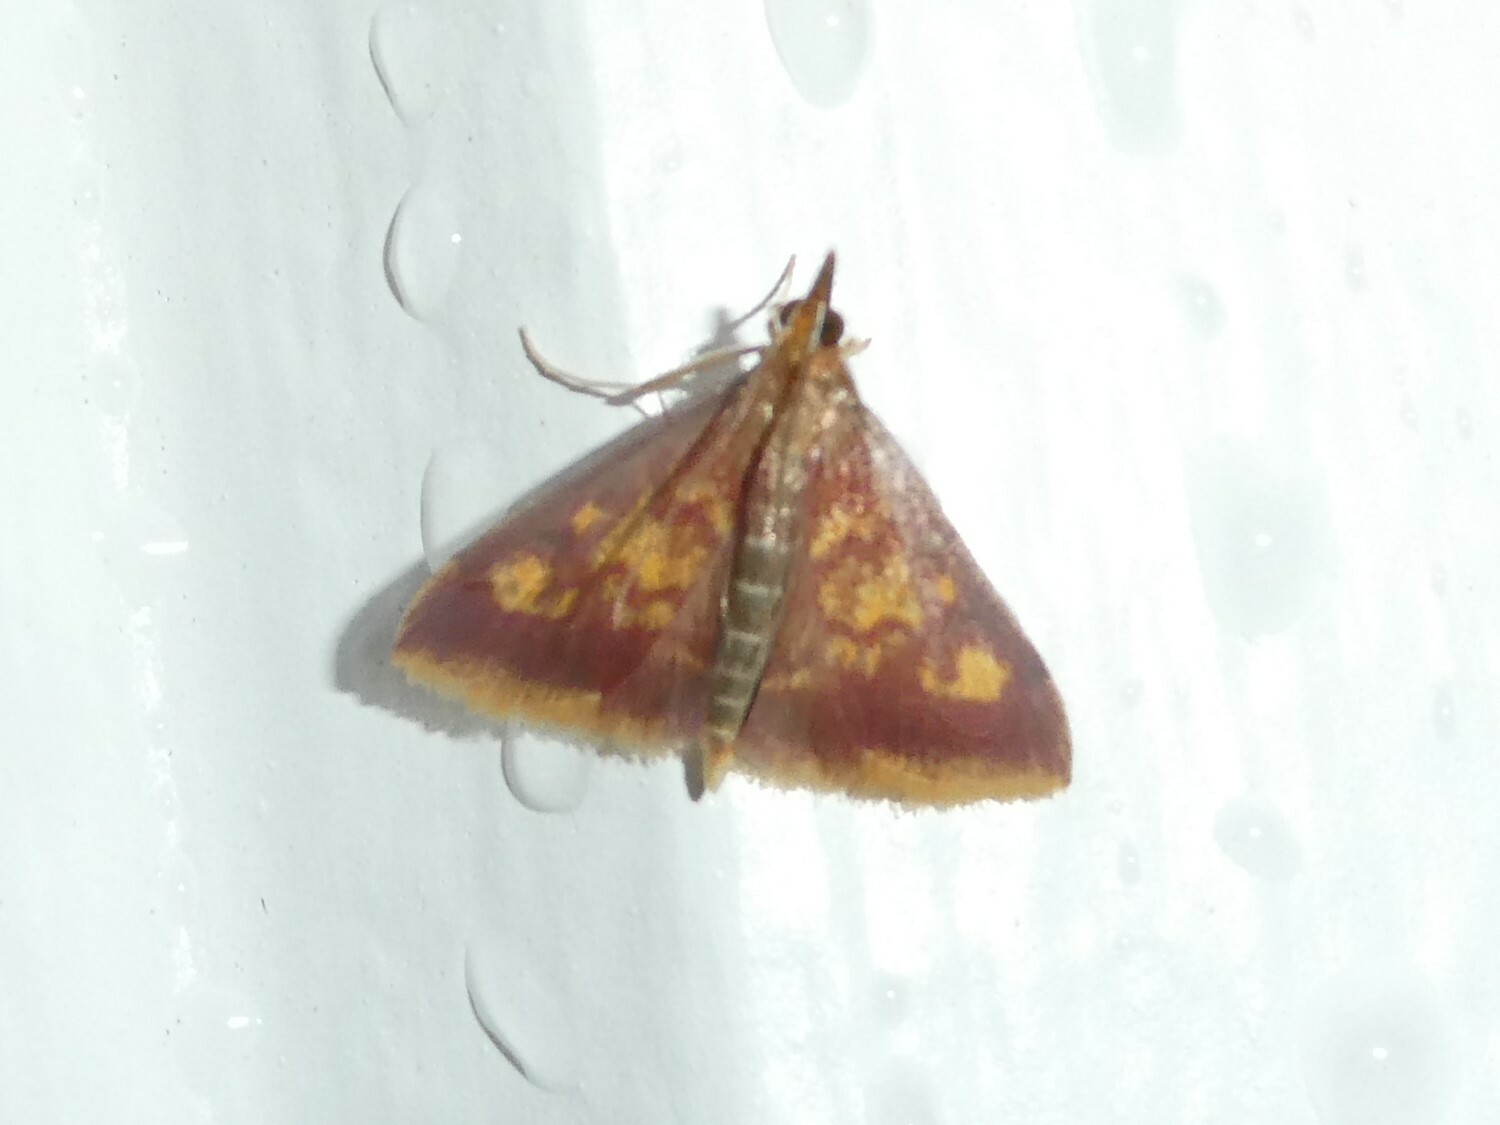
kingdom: Animalia
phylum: Arthropoda
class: Insecta
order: Lepidoptera
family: Crambidae
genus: Pyrausta
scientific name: Pyrausta acrionalis
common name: Mint-loving pyrausta moth
